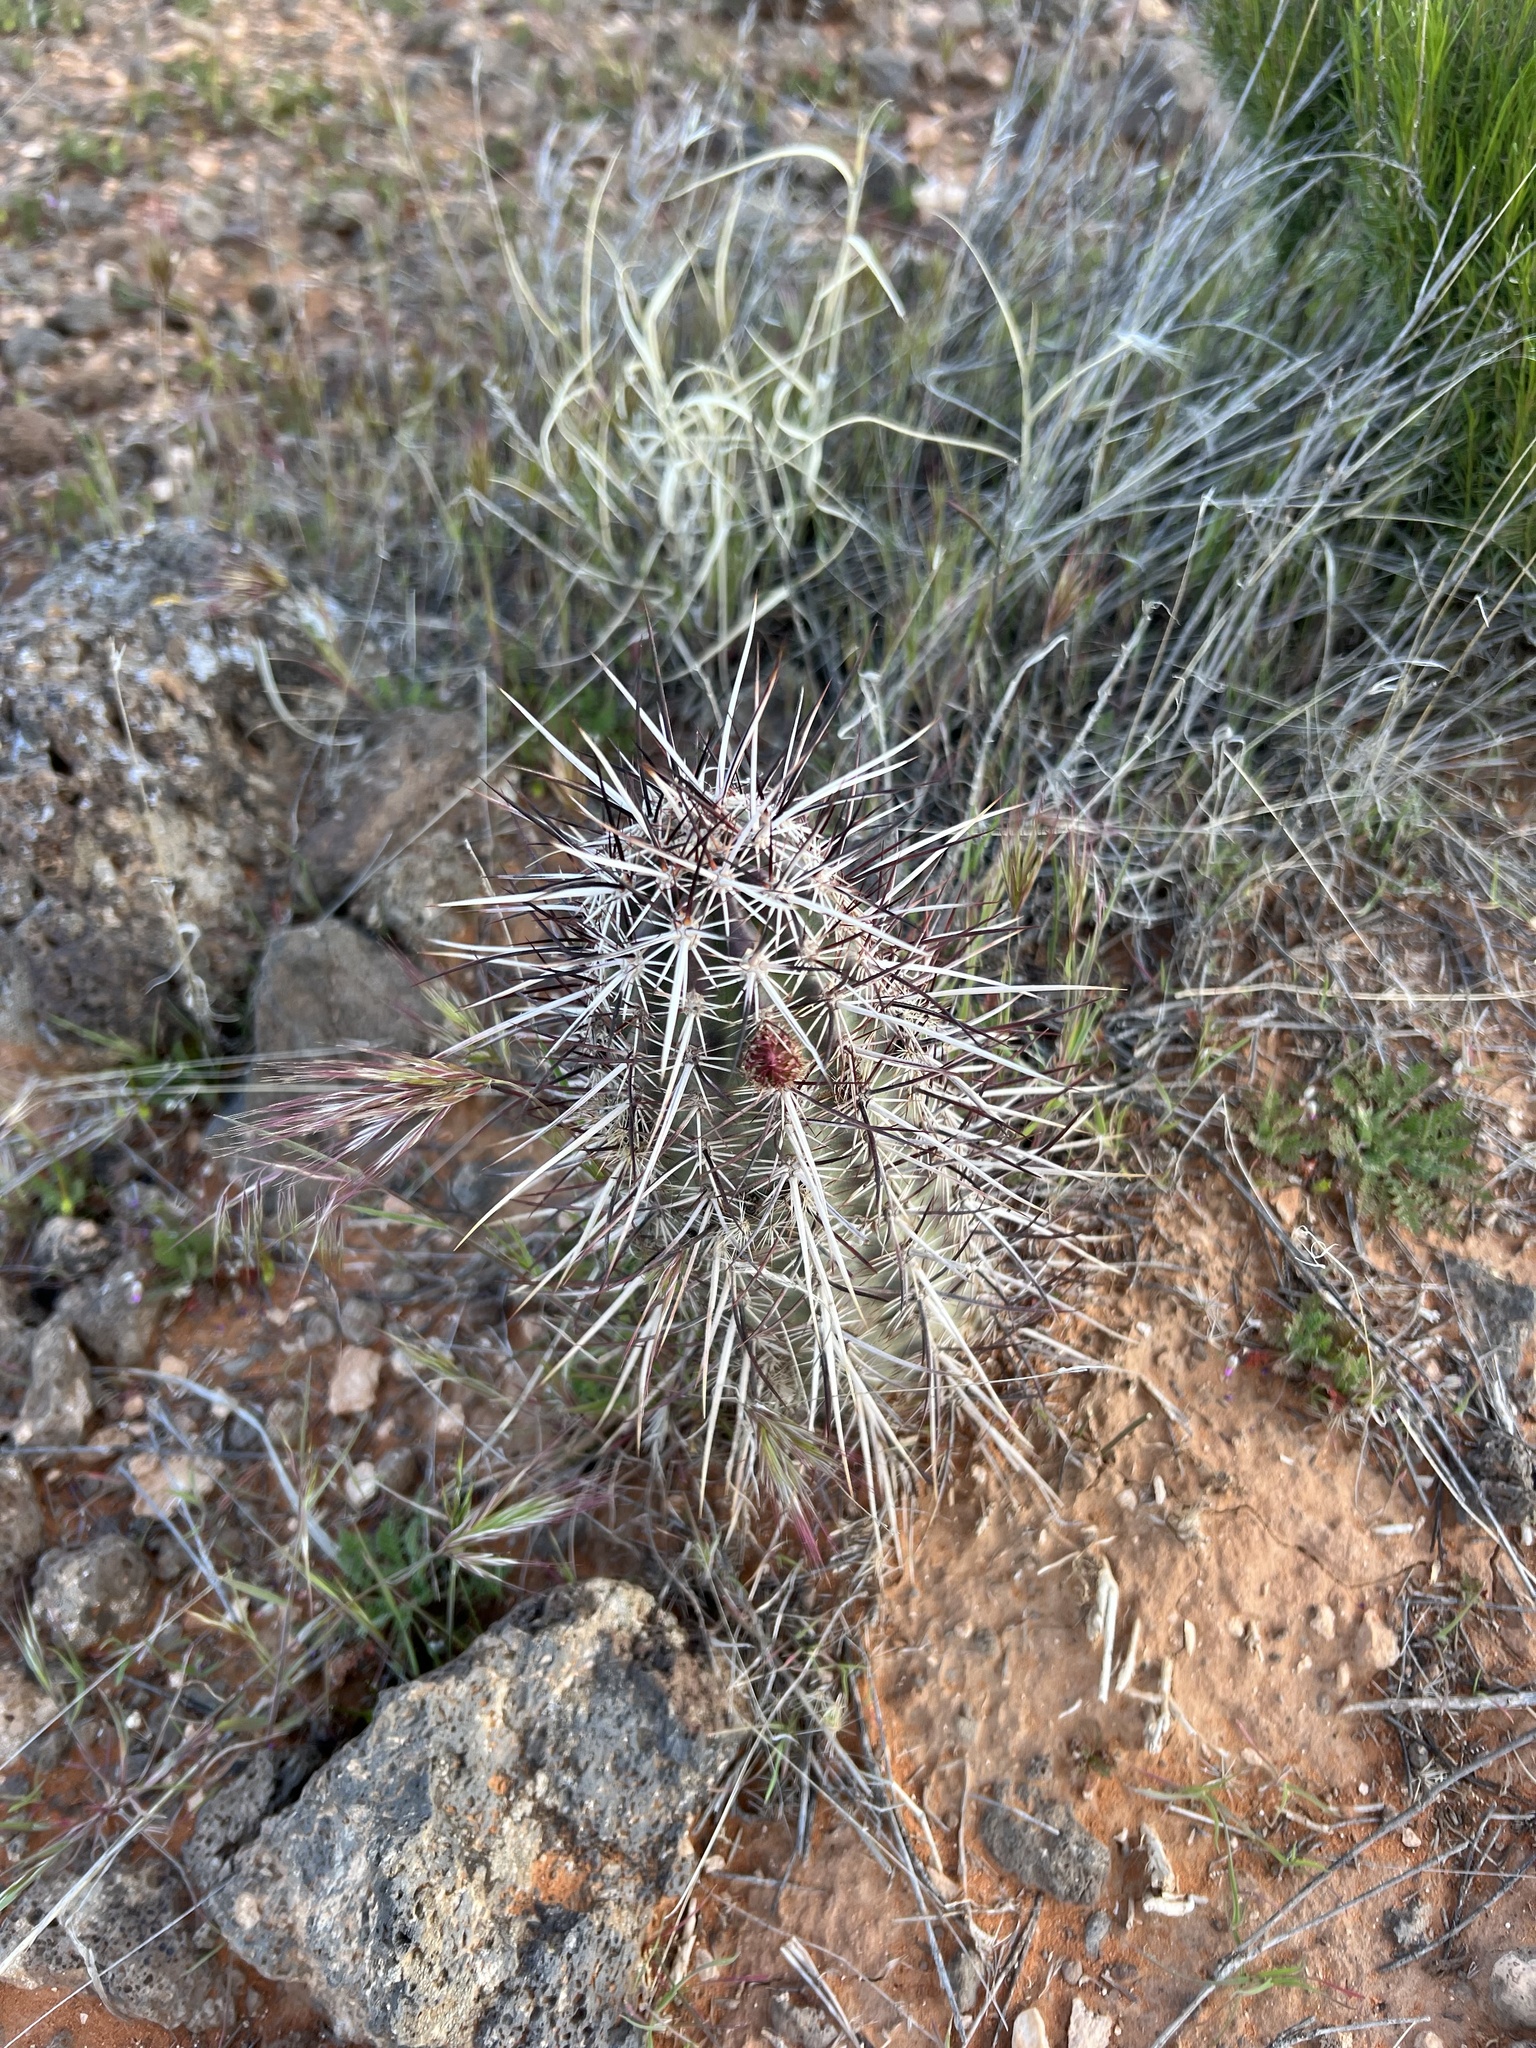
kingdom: Plantae
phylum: Tracheophyta
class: Magnoliopsida
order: Caryophyllales
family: Cactaceae
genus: Echinocereus
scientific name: Echinocereus relictus
